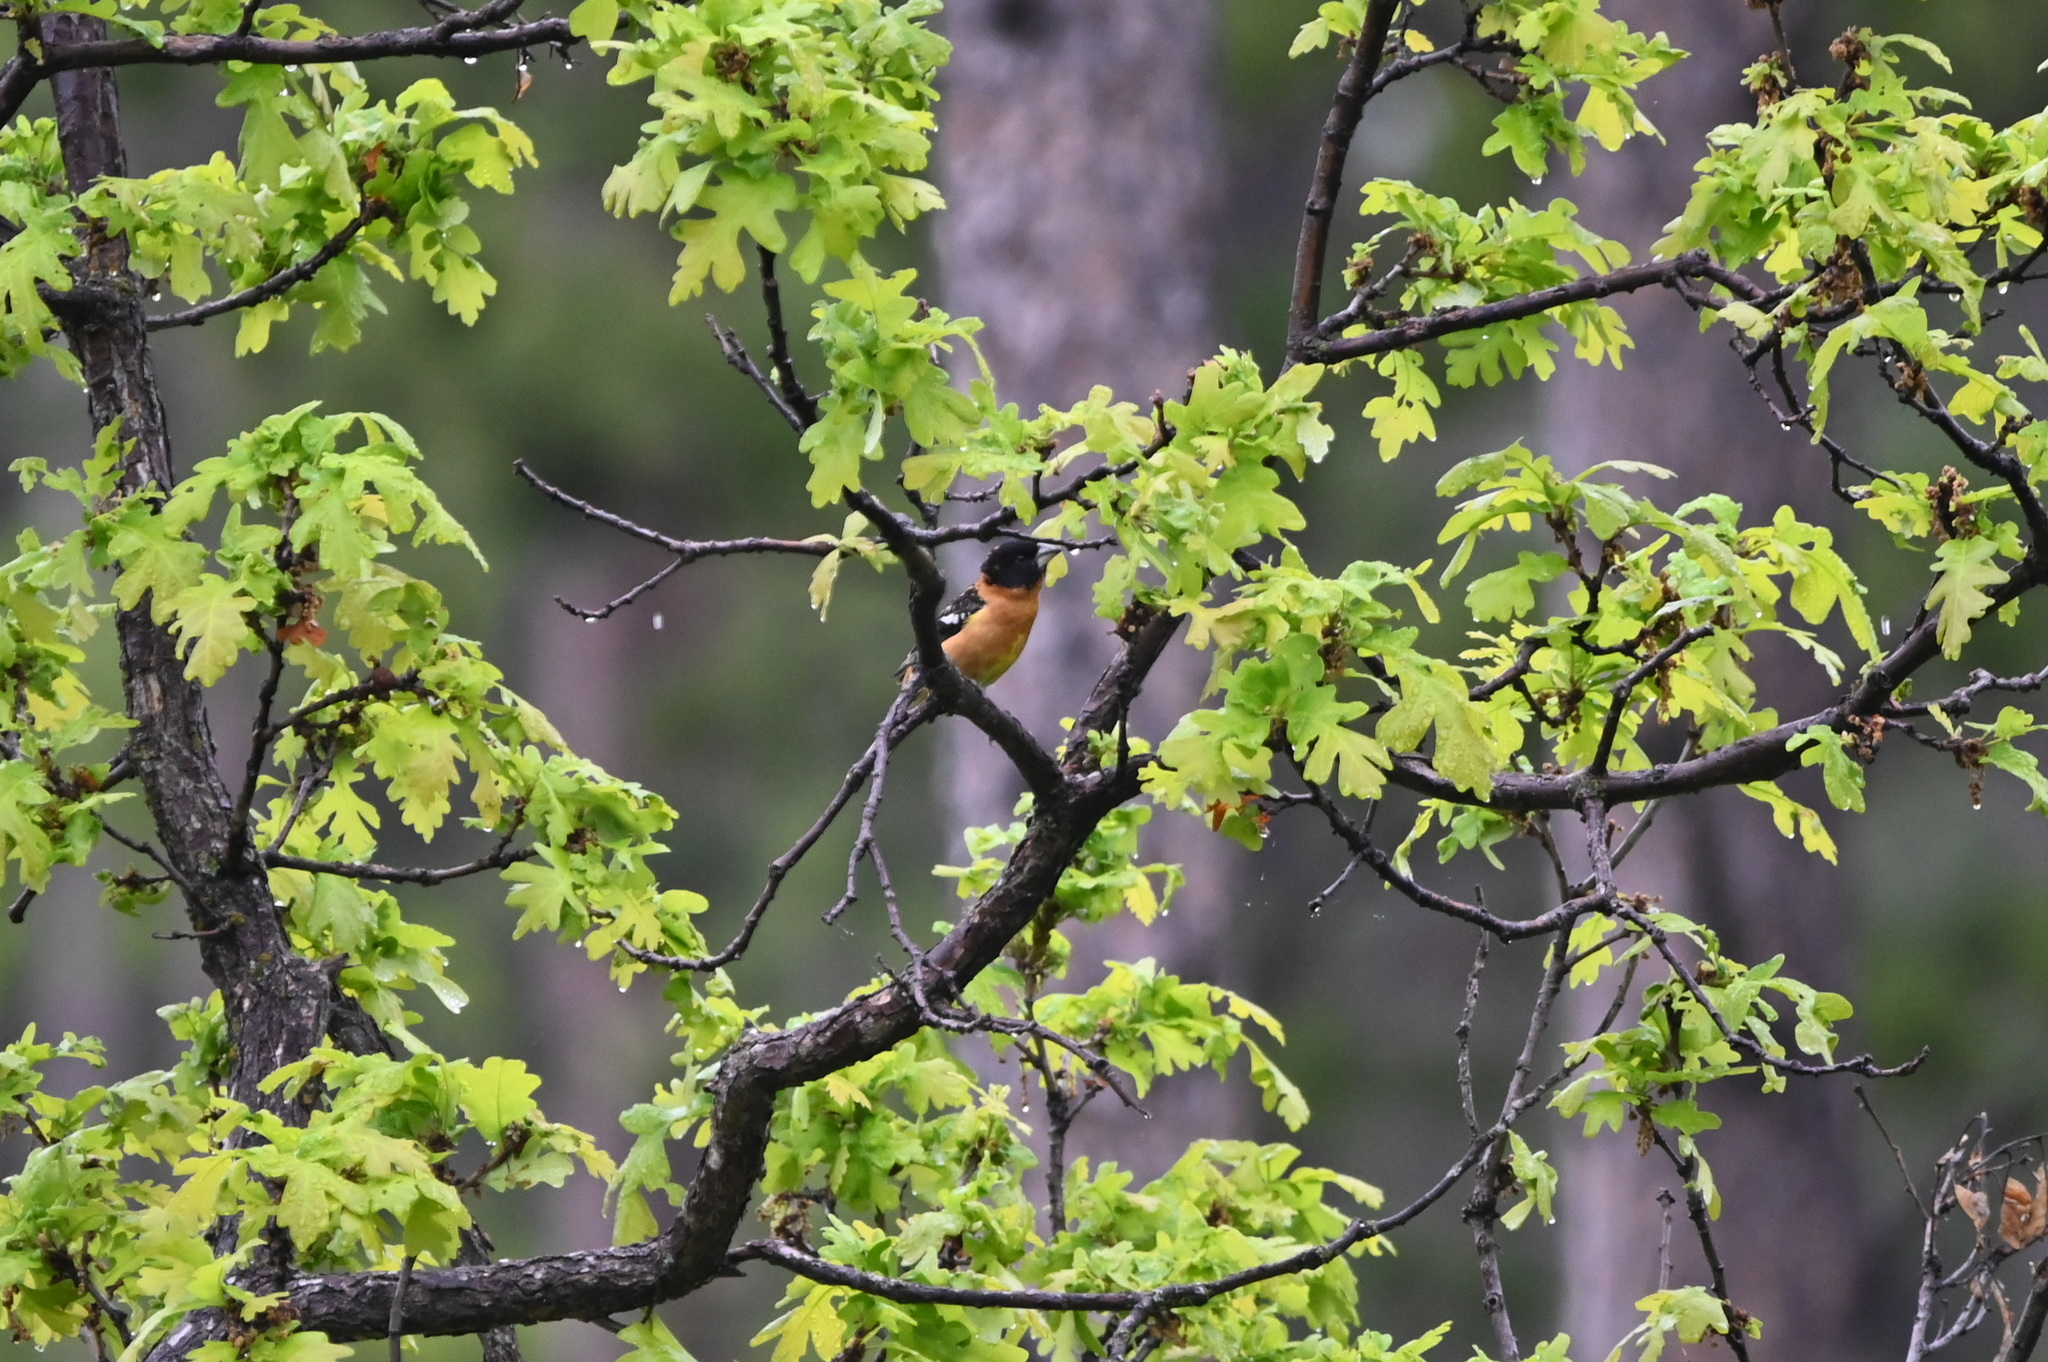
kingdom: Animalia
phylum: Chordata
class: Aves
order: Passeriformes
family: Cardinalidae
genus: Pheucticus
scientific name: Pheucticus melanocephalus
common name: Black-headed grosbeak
